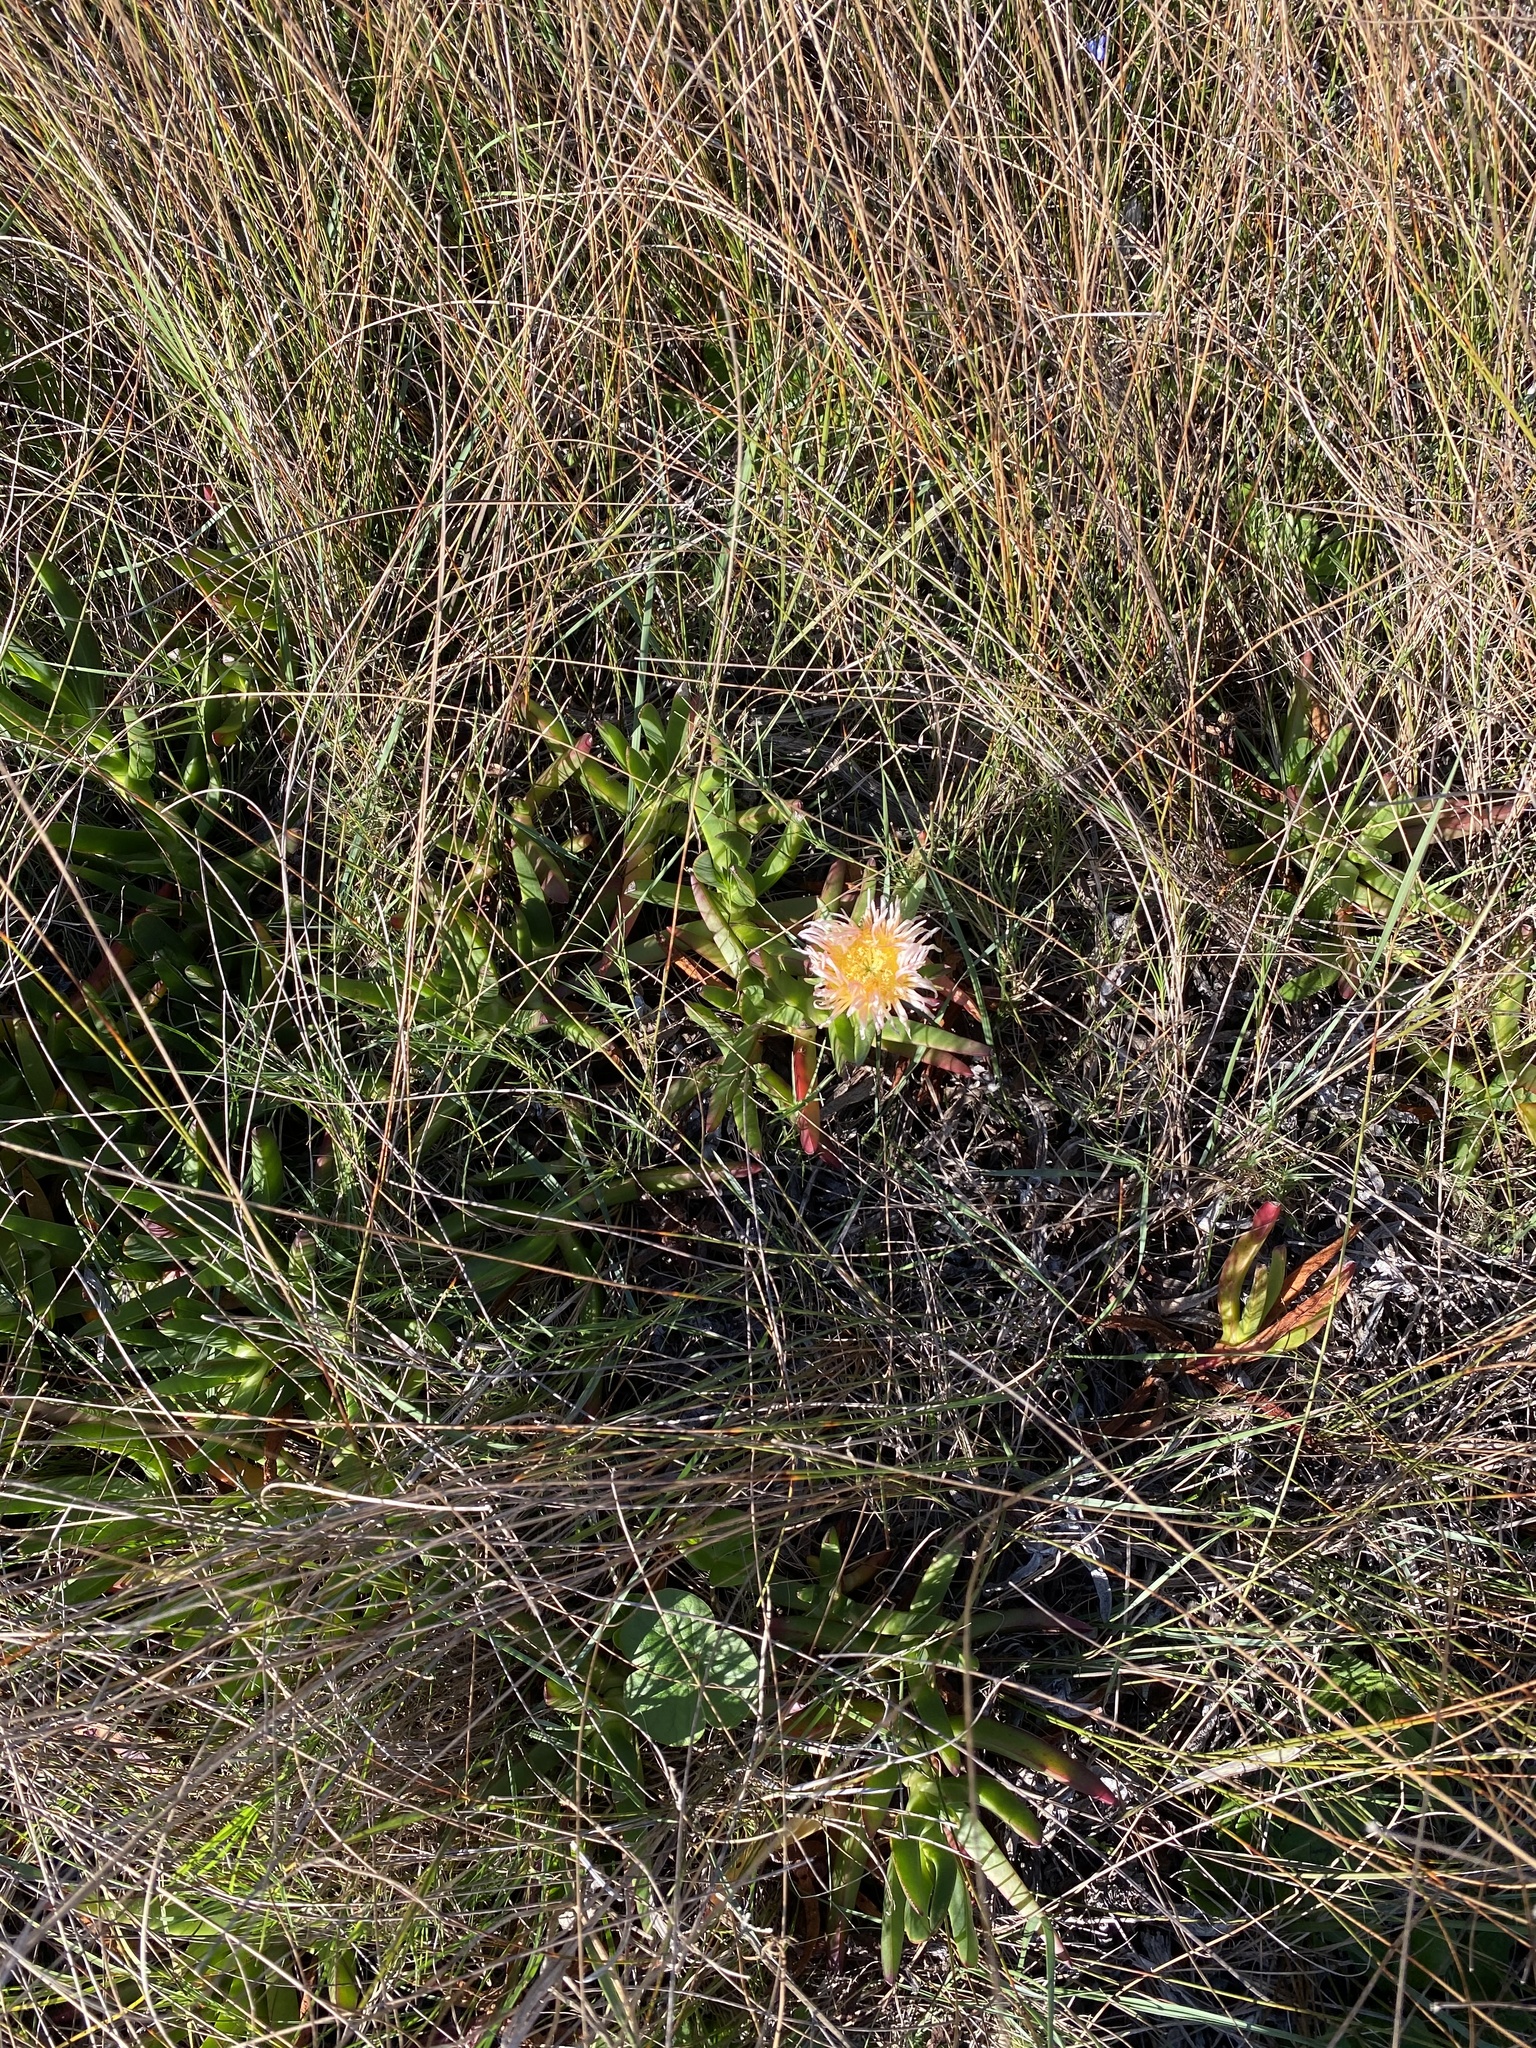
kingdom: Plantae
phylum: Tracheophyta
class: Magnoliopsida
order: Caryophyllales
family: Aizoaceae
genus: Carpobrotus
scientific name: Carpobrotus edulis
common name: Hottentot-fig
